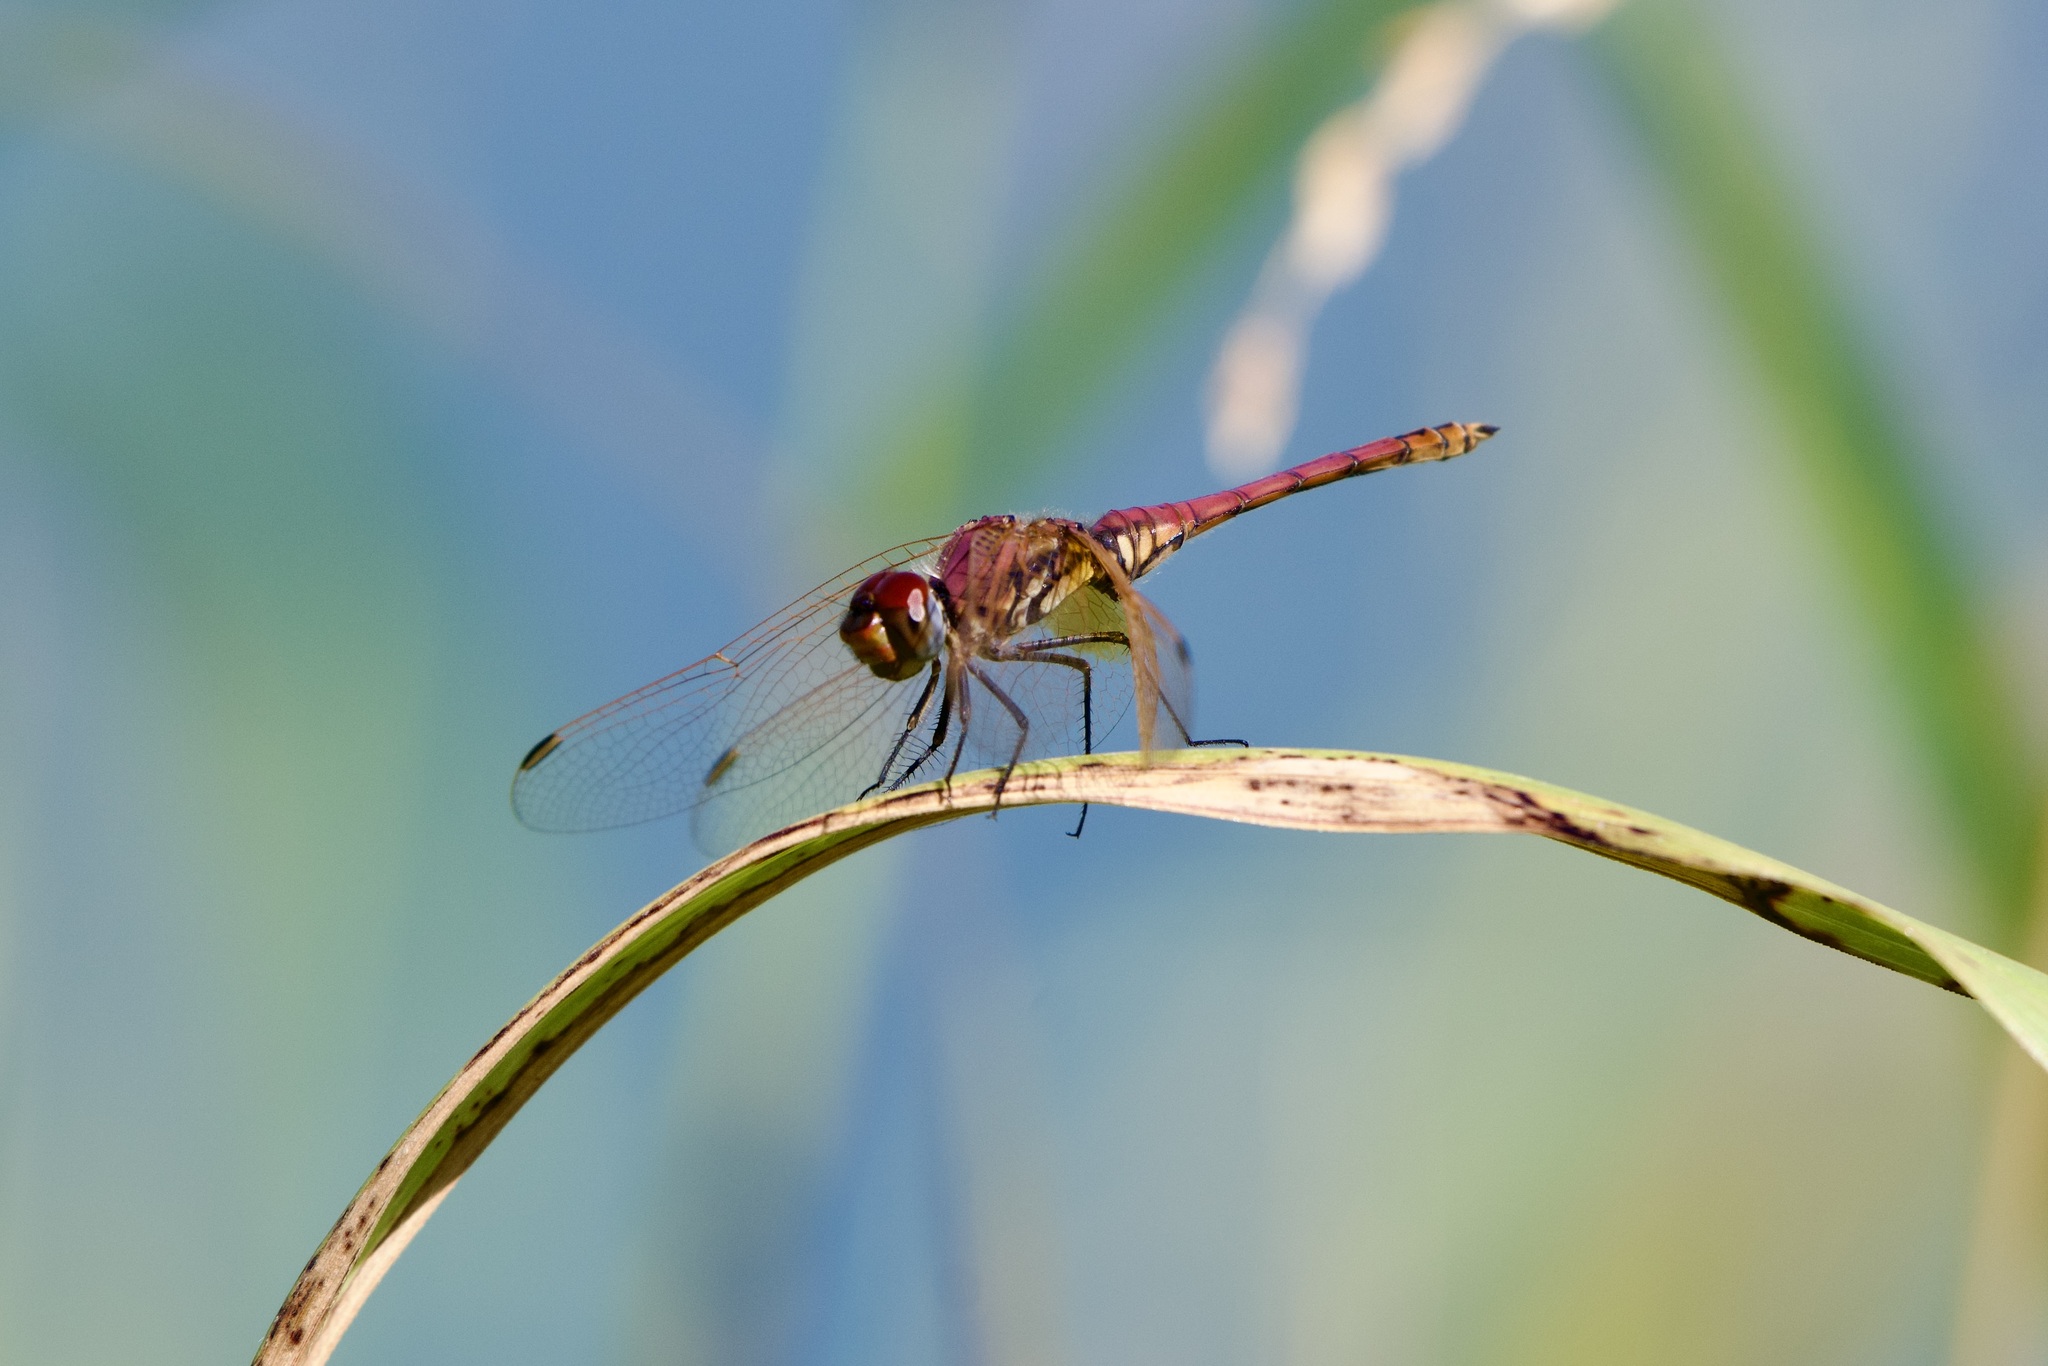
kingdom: Animalia
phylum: Arthropoda
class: Insecta
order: Odonata
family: Libellulidae
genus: Trithemis
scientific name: Trithemis annulata
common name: Violet dropwing
